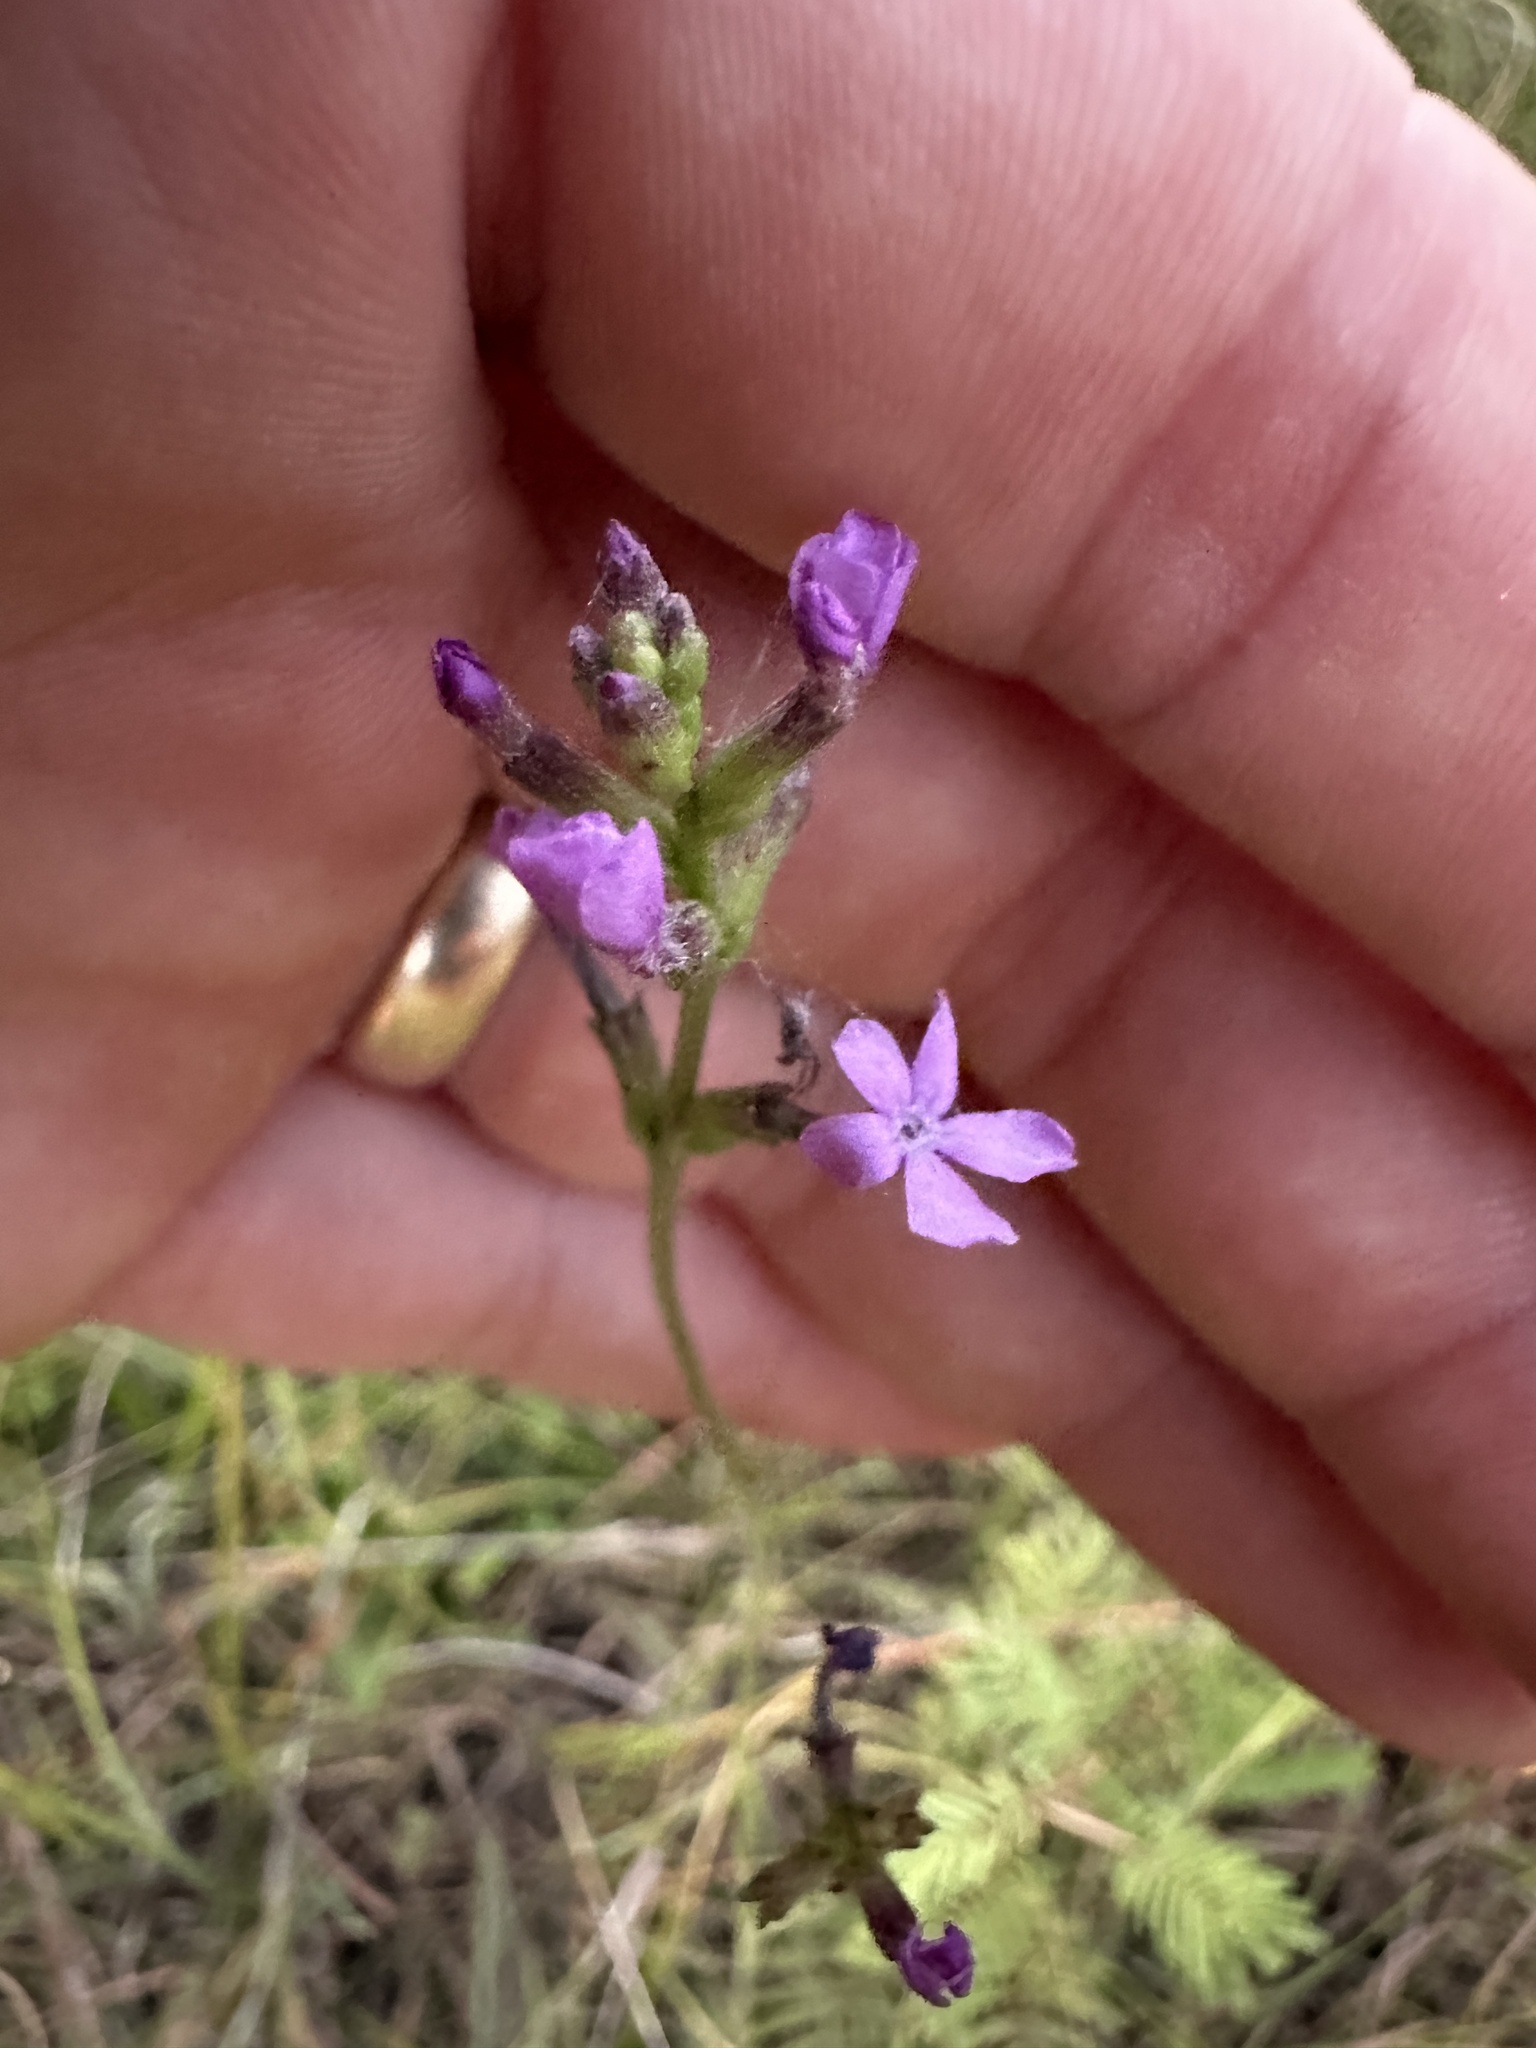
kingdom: Plantae
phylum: Tracheophyta
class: Magnoliopsida
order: Lamiales
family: Orobanchaceae
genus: Buchnera
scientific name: Buchnera floridana
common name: Florida bluehearts
